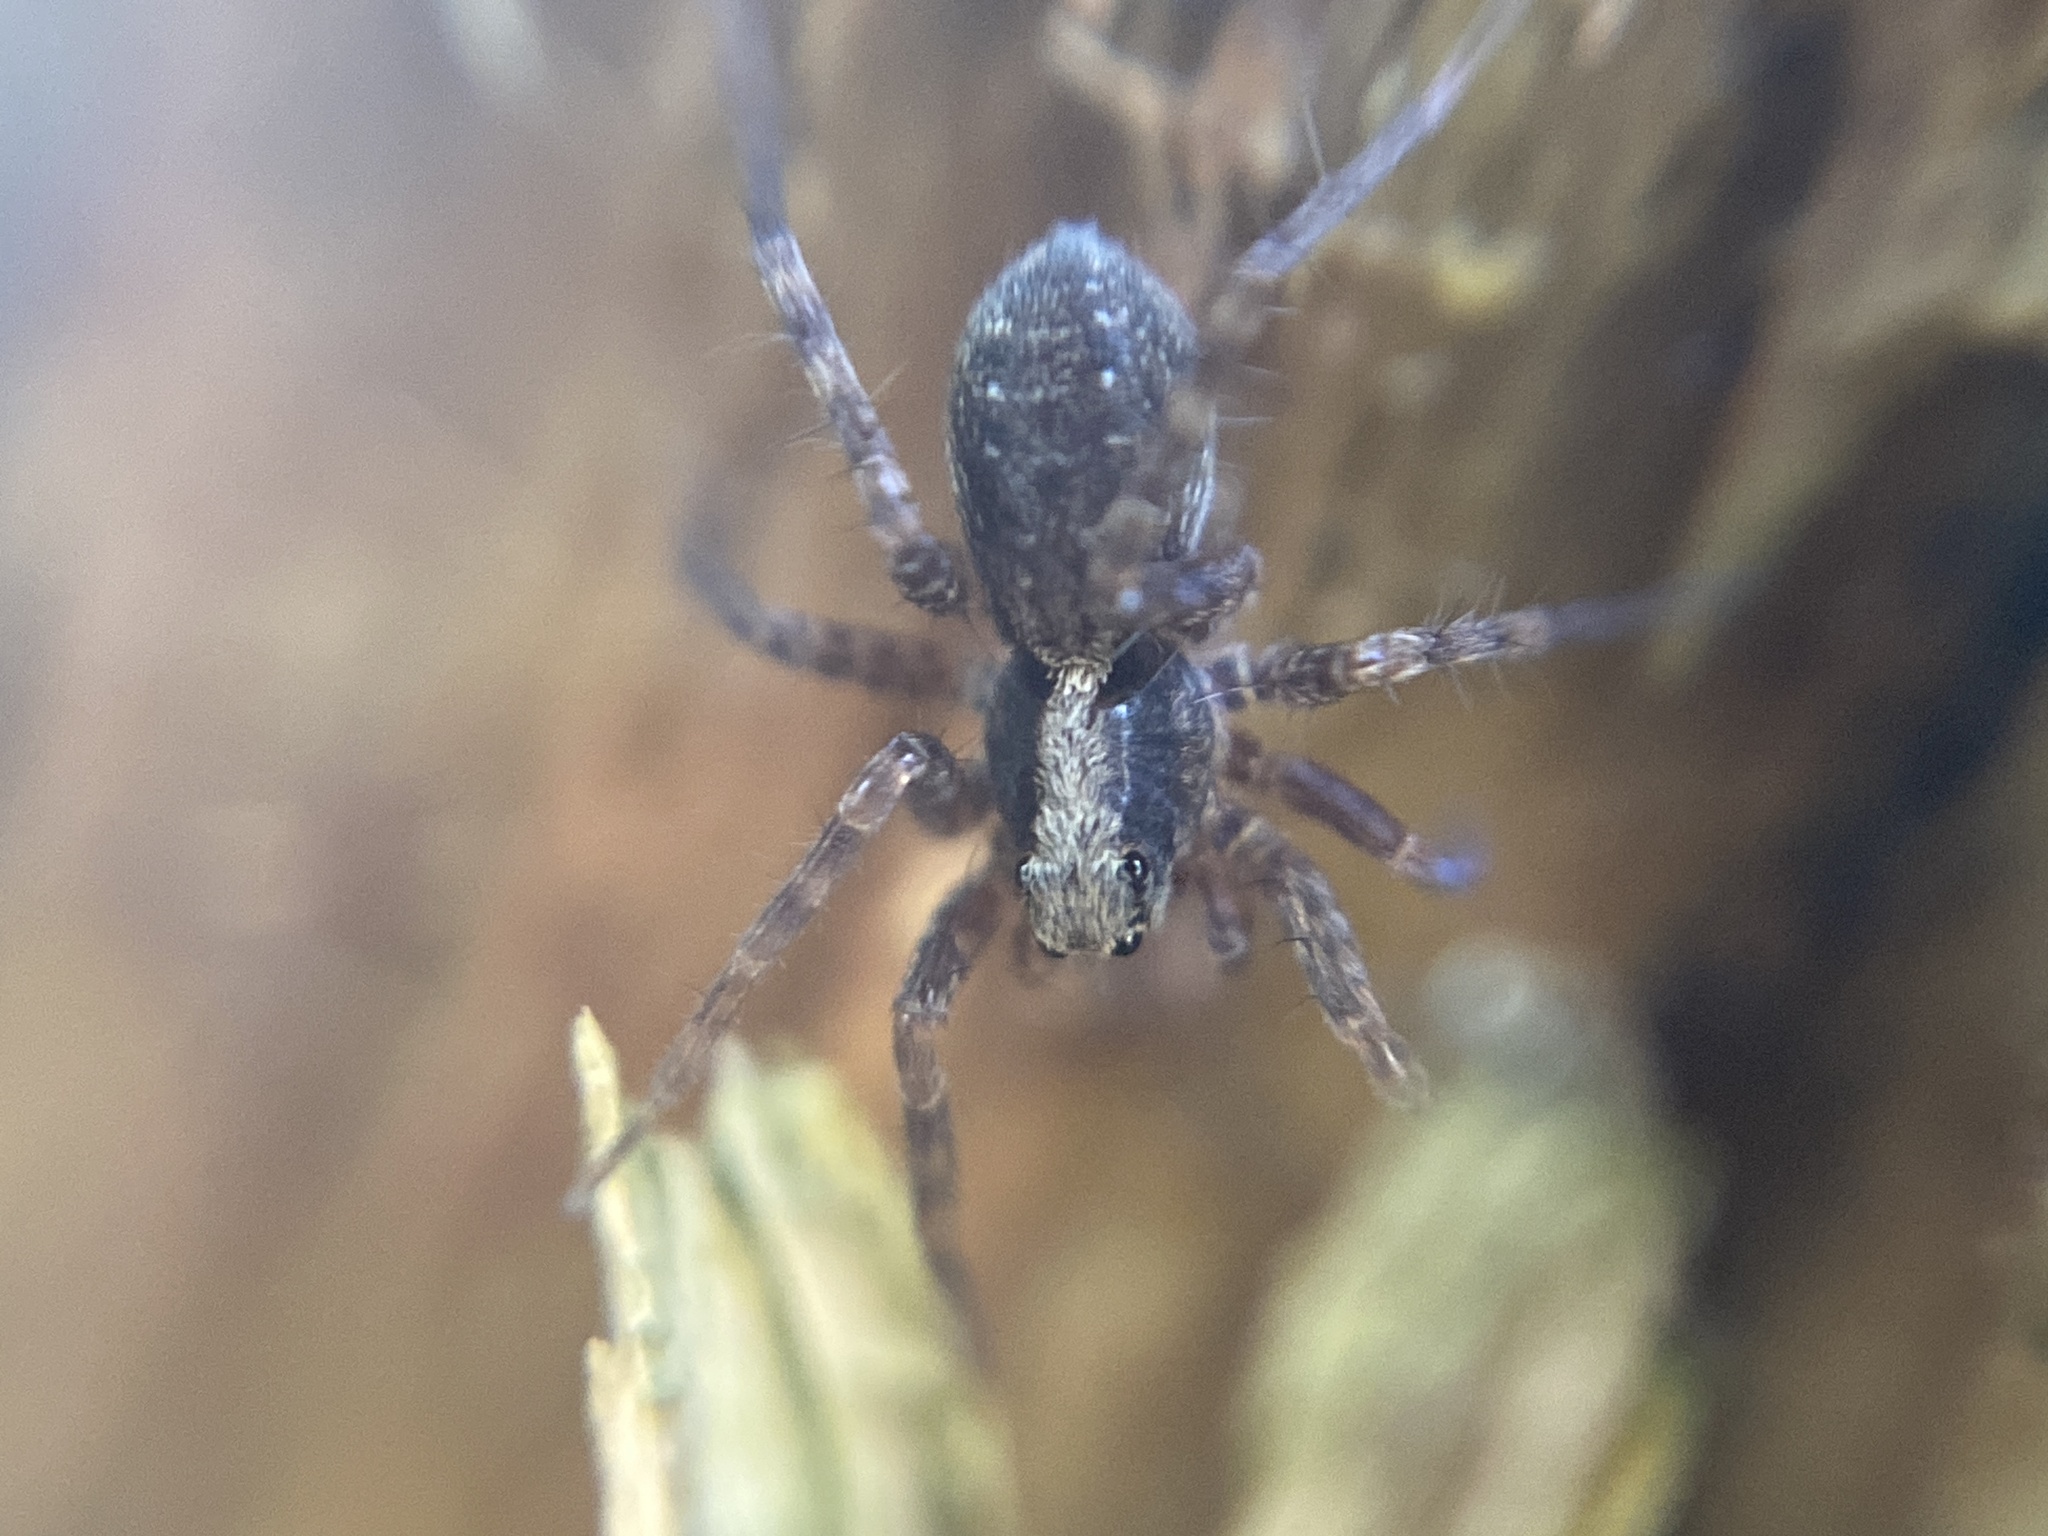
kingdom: Animalia
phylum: Arthropoda
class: Arachnida
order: Araneae
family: Lycosidae
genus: Pardosa
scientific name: Pardosa
